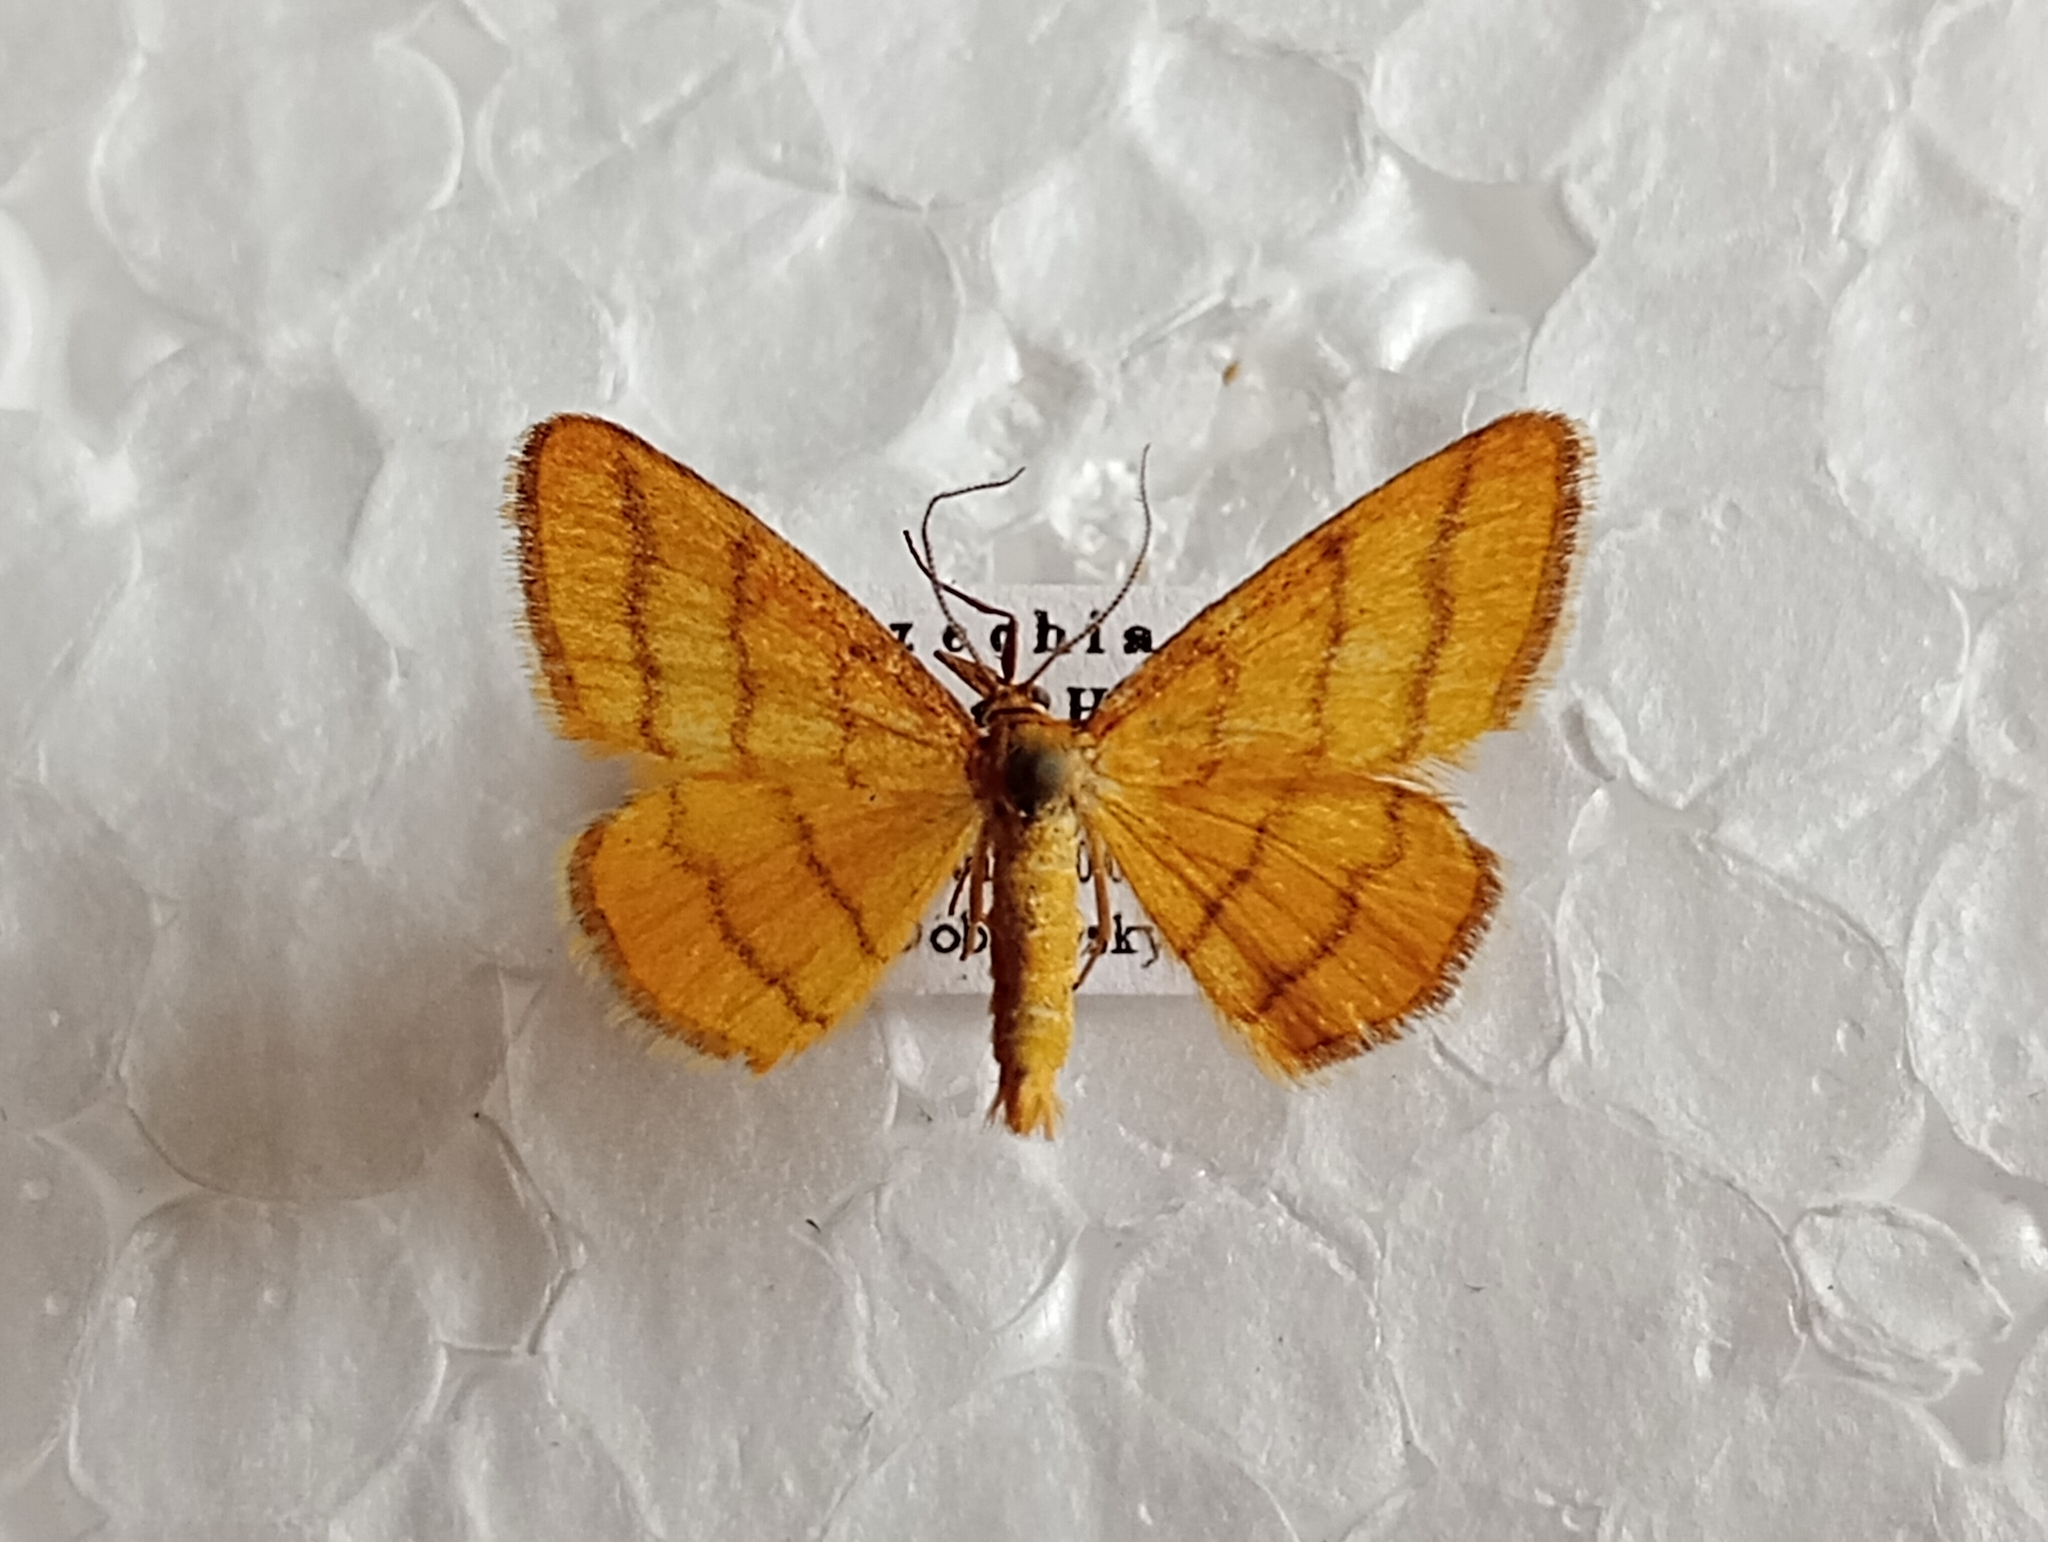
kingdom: Animalia
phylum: Arthropoda
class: Insecta
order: Lepidoptera
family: Geometridae
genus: Idaea
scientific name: Idaea aureolaria
